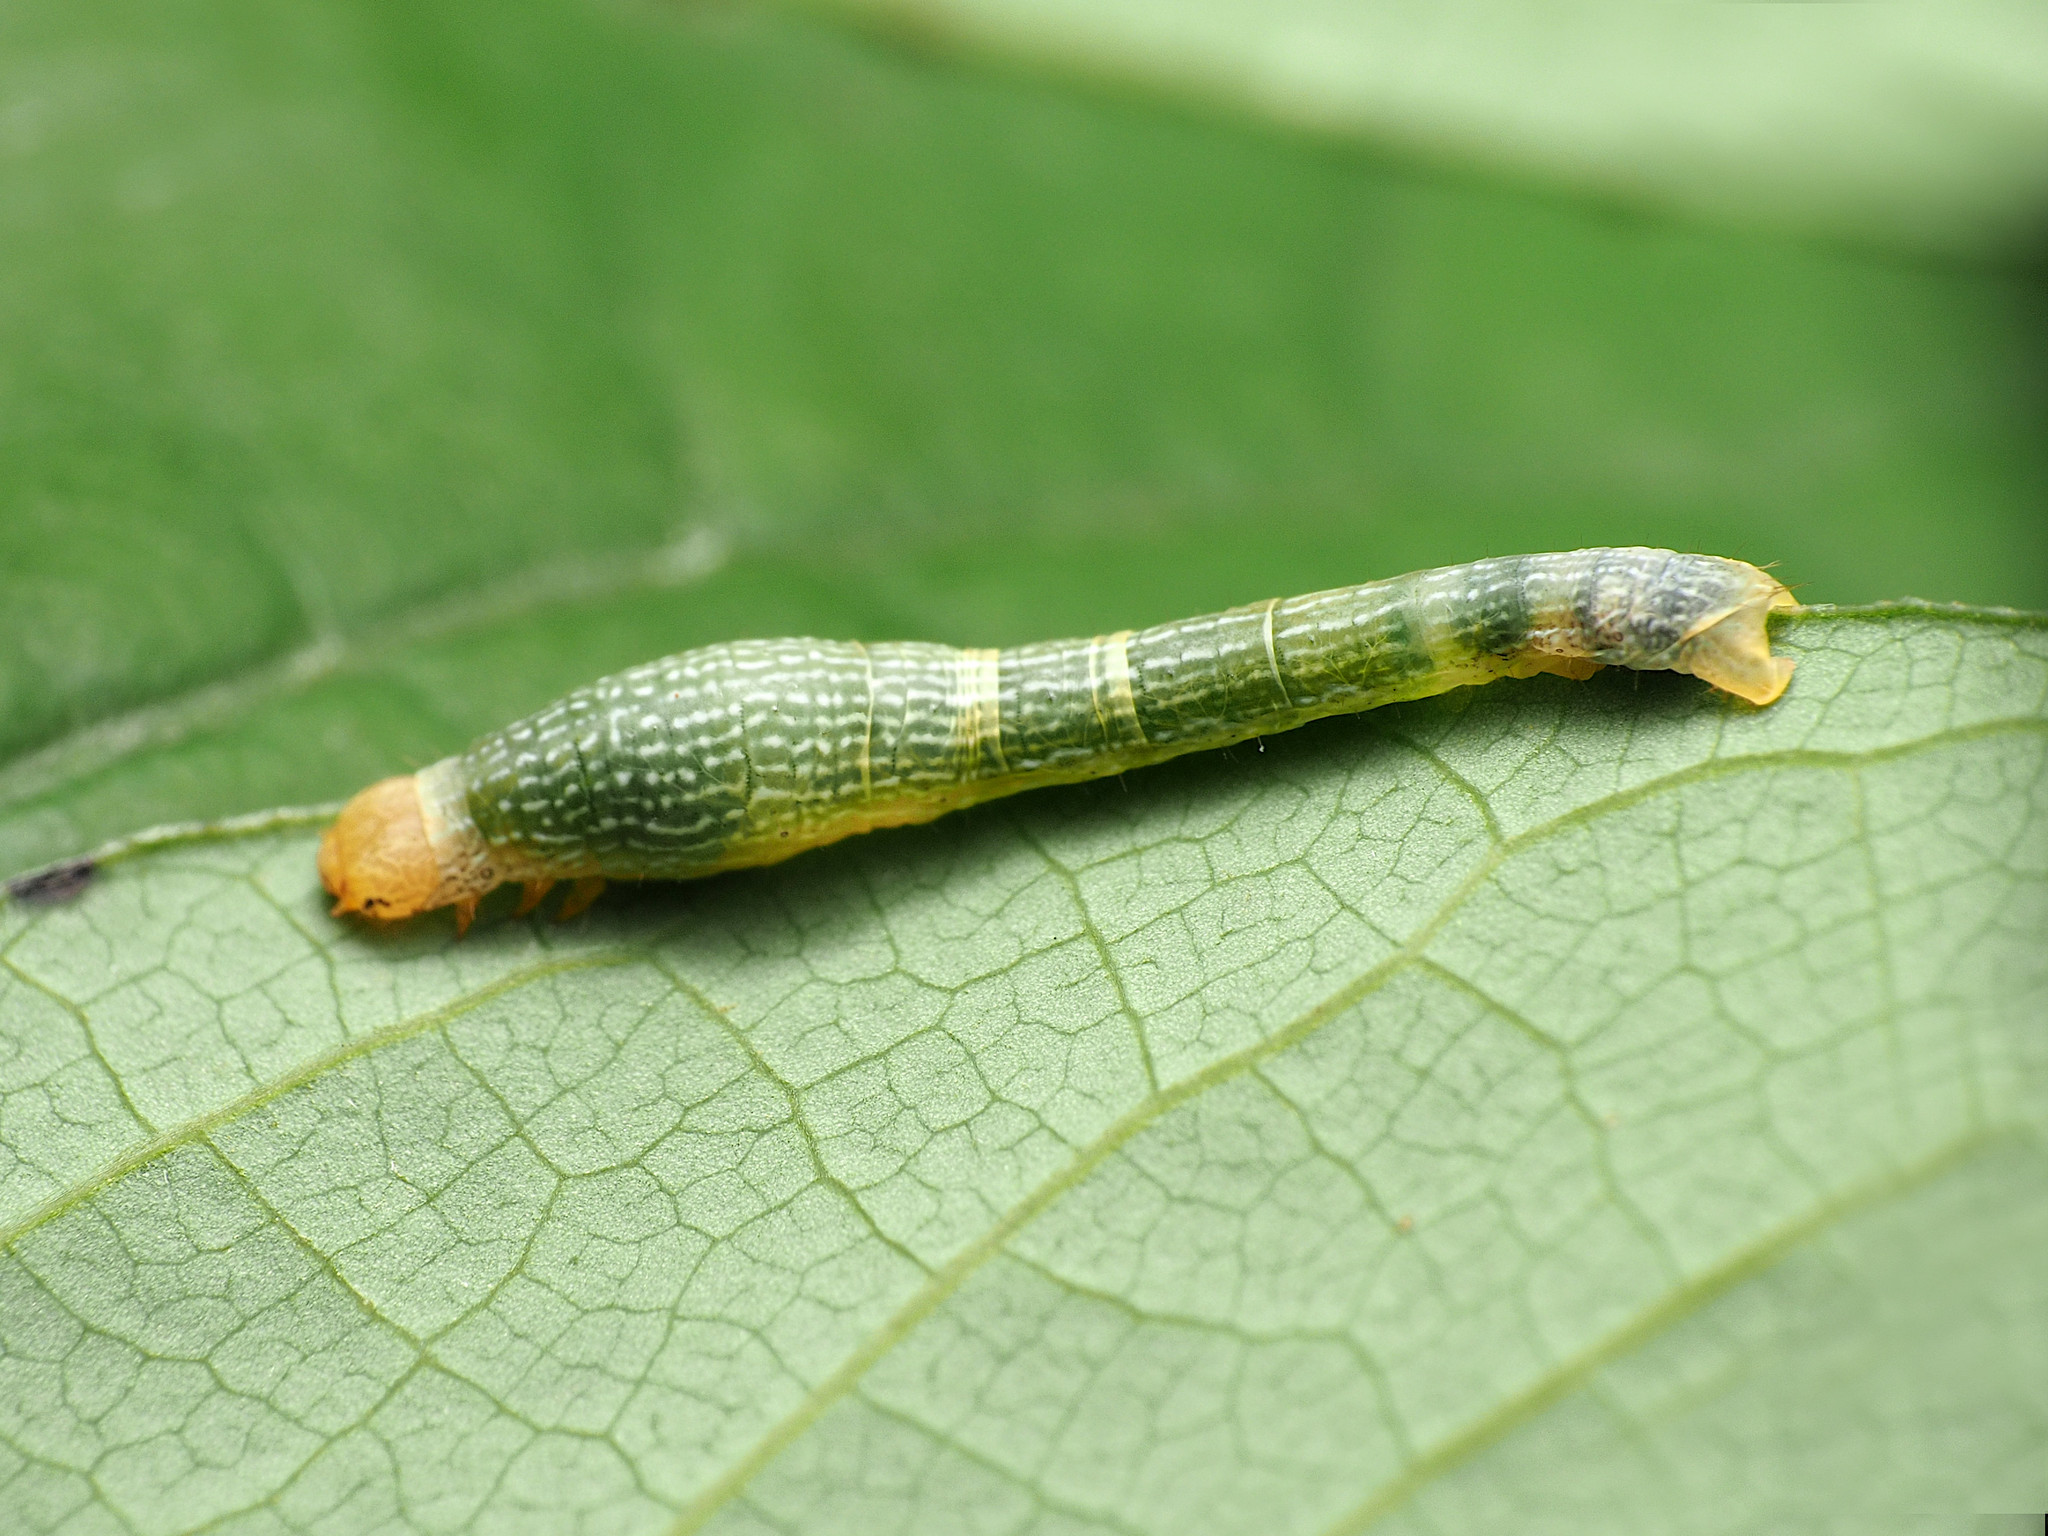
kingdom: Animalia
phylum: Arthropoda
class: Insecta
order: Lepidoptera
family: Geometridae
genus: Epimecis
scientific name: Epimecis hortaria
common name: Tulip-tree beauty
